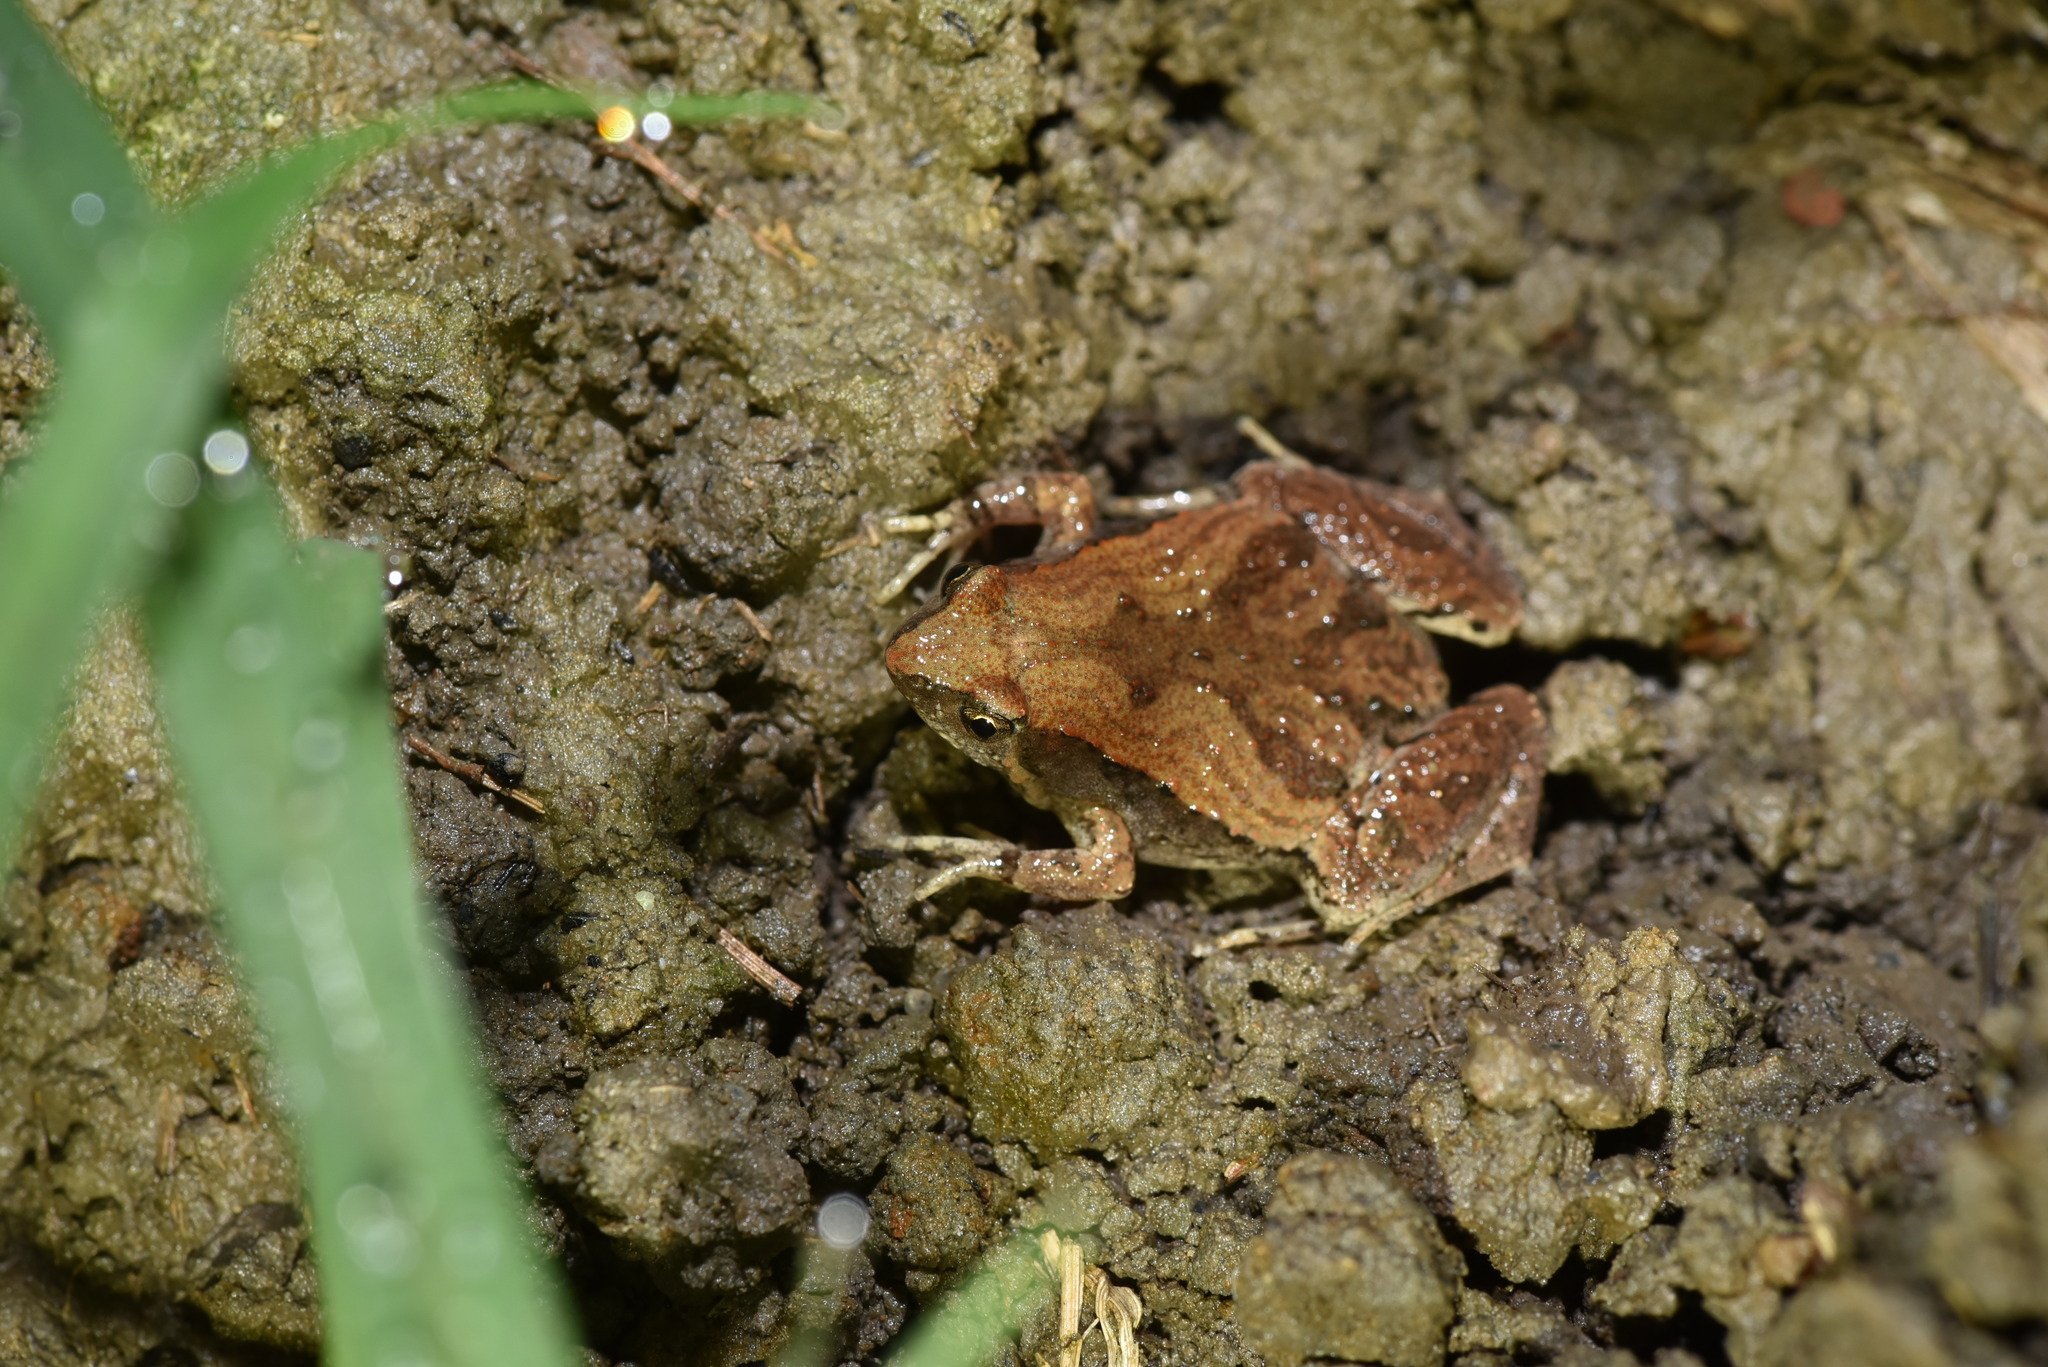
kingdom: Animalia
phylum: Chordata
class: Amphibia
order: Anura
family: Microhylidae
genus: Microhyla
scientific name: Microhyla fissipes
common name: Ornate narrow-mouthed frog
